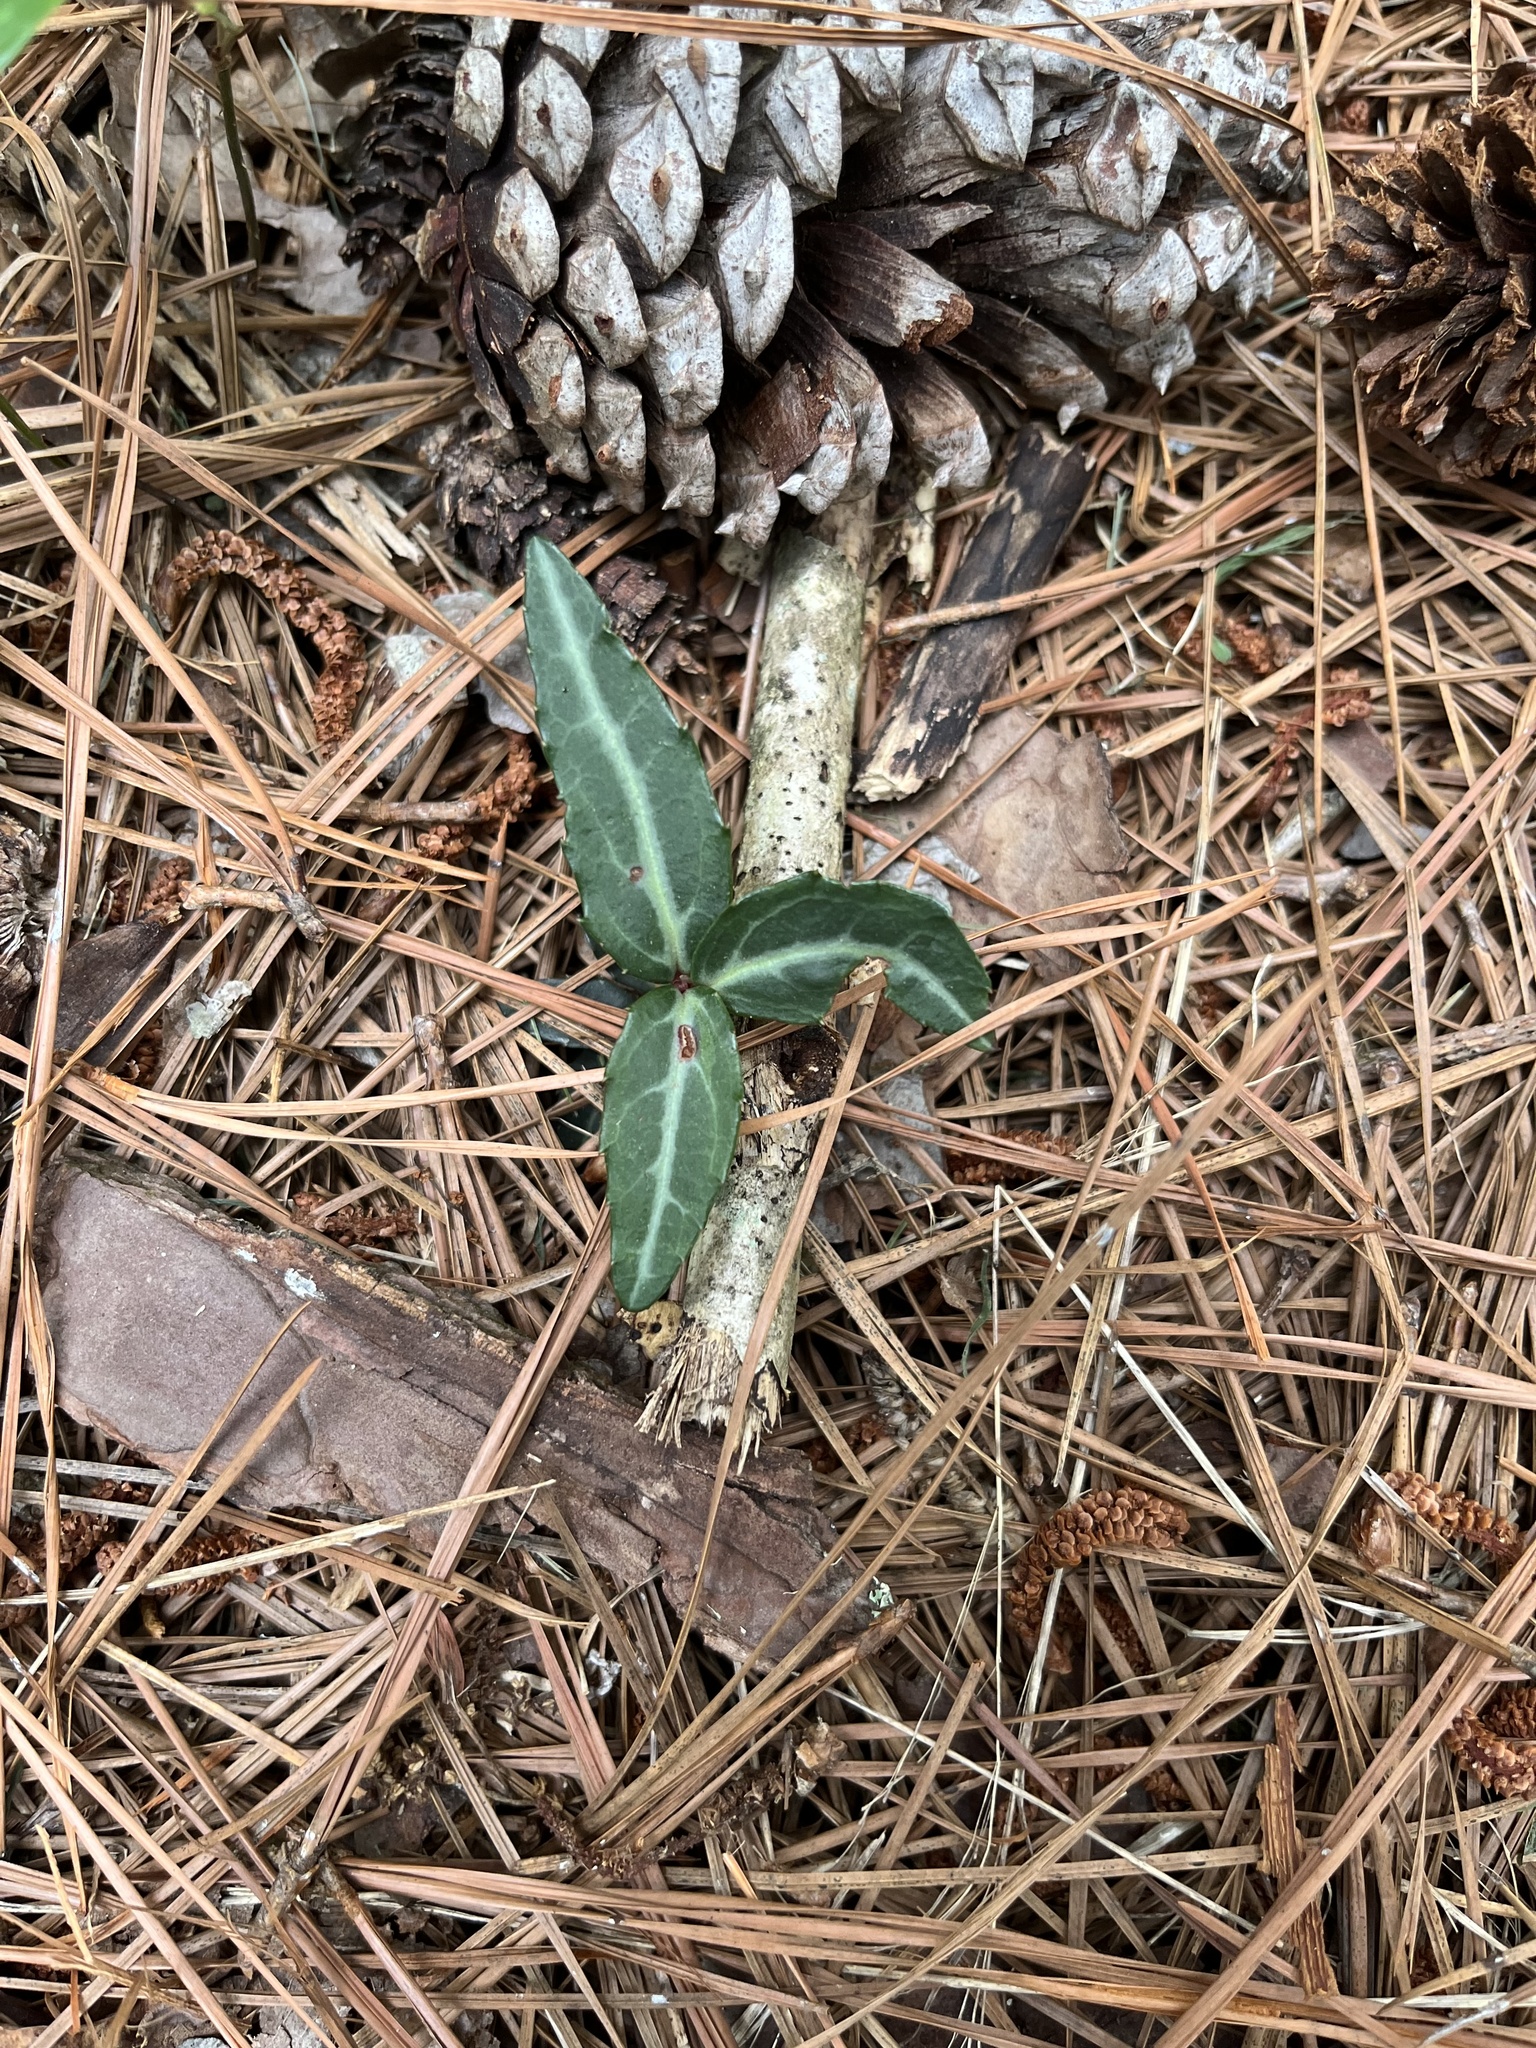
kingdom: Plantae
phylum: Tracheophyta
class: Magnoliopsida
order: Ericales
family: Ericaceae
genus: Chimaphila
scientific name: Chimaphila maculata
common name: Spotted pipsissewa
